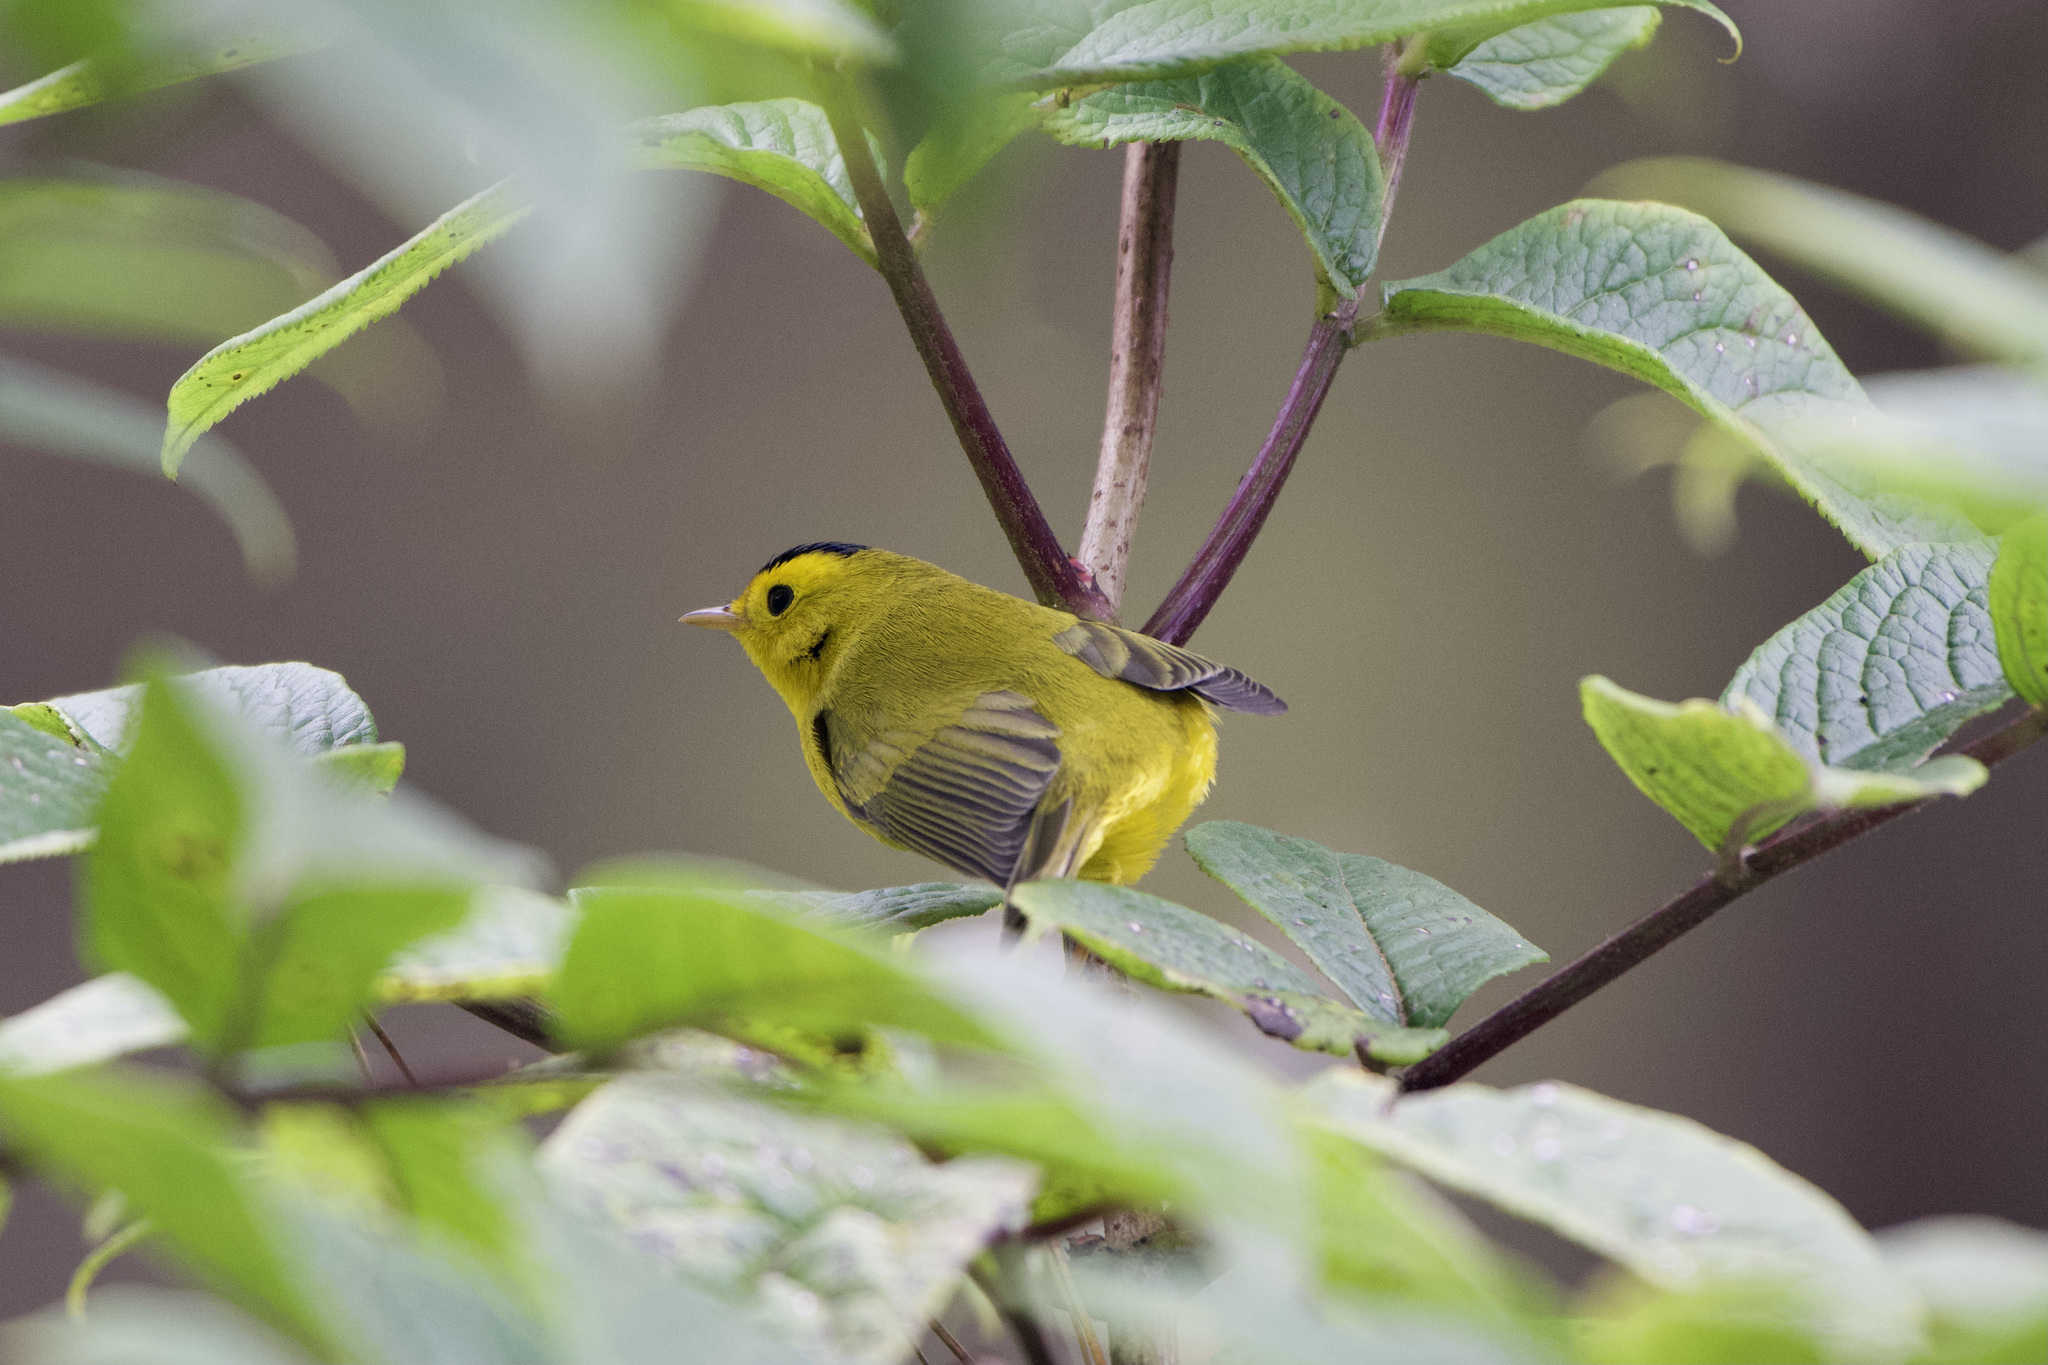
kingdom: Animalia
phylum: Chordata
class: Aves
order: Passeriformes
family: Parulidae
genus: Cardellina
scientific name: Cardellina pusilla
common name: Wilson's warbler
